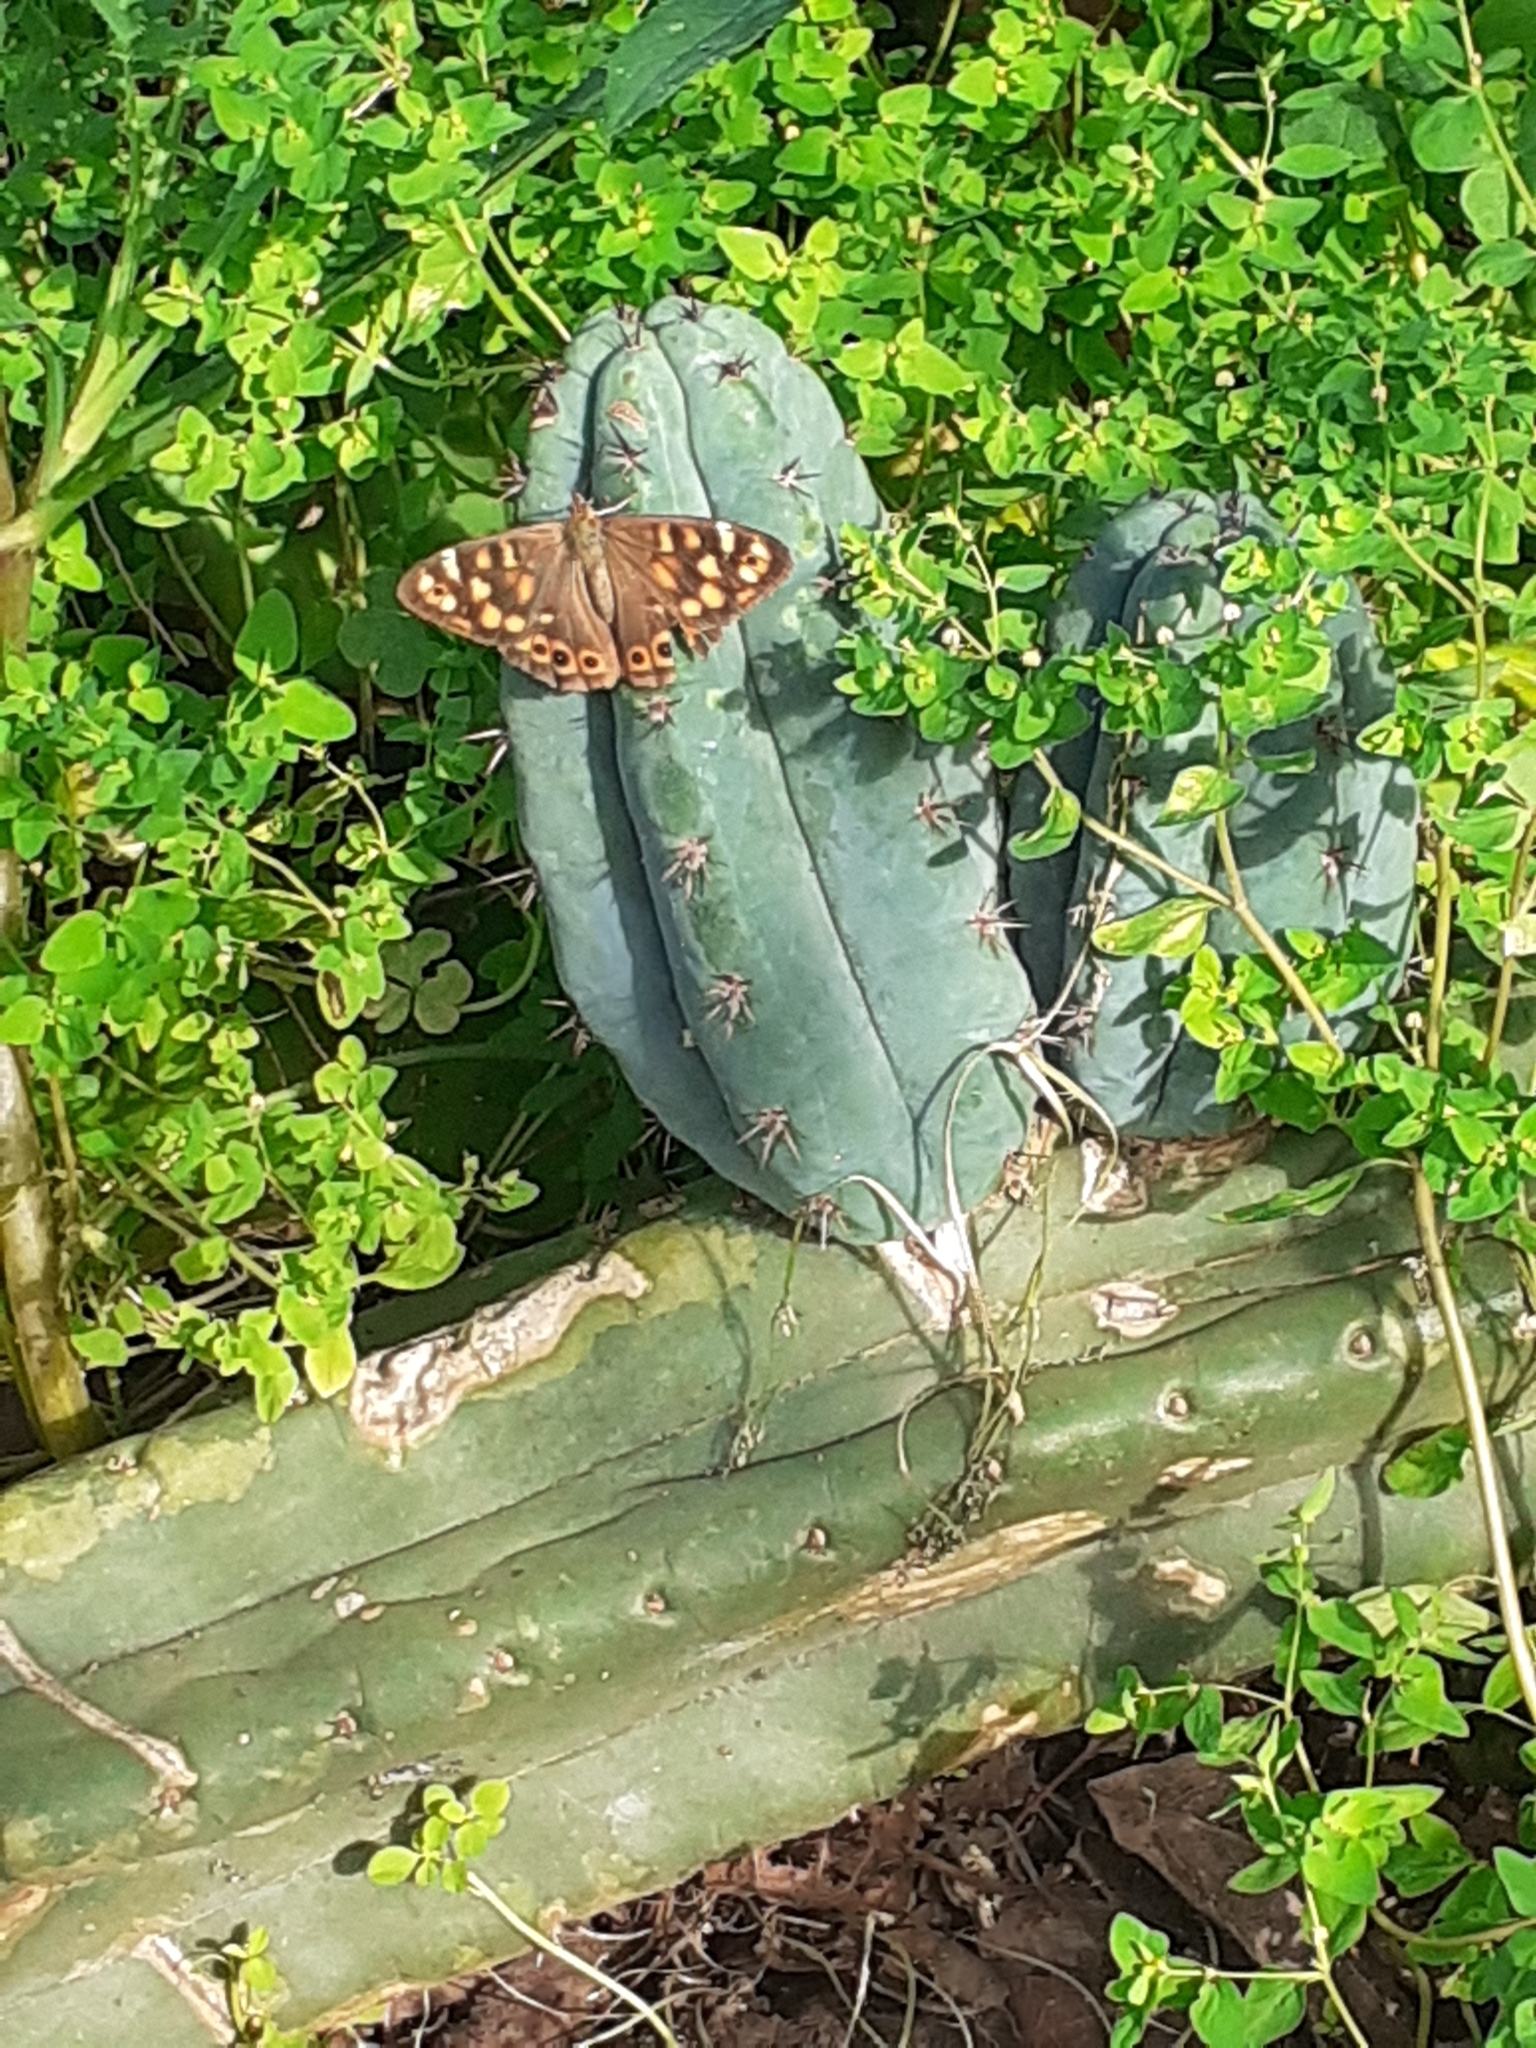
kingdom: Animalia
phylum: Arthropoda
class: Insecta
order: Lepidoptera
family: Nymphalidae
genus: Pararge
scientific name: Pararge aegeria
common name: Speckled wood
